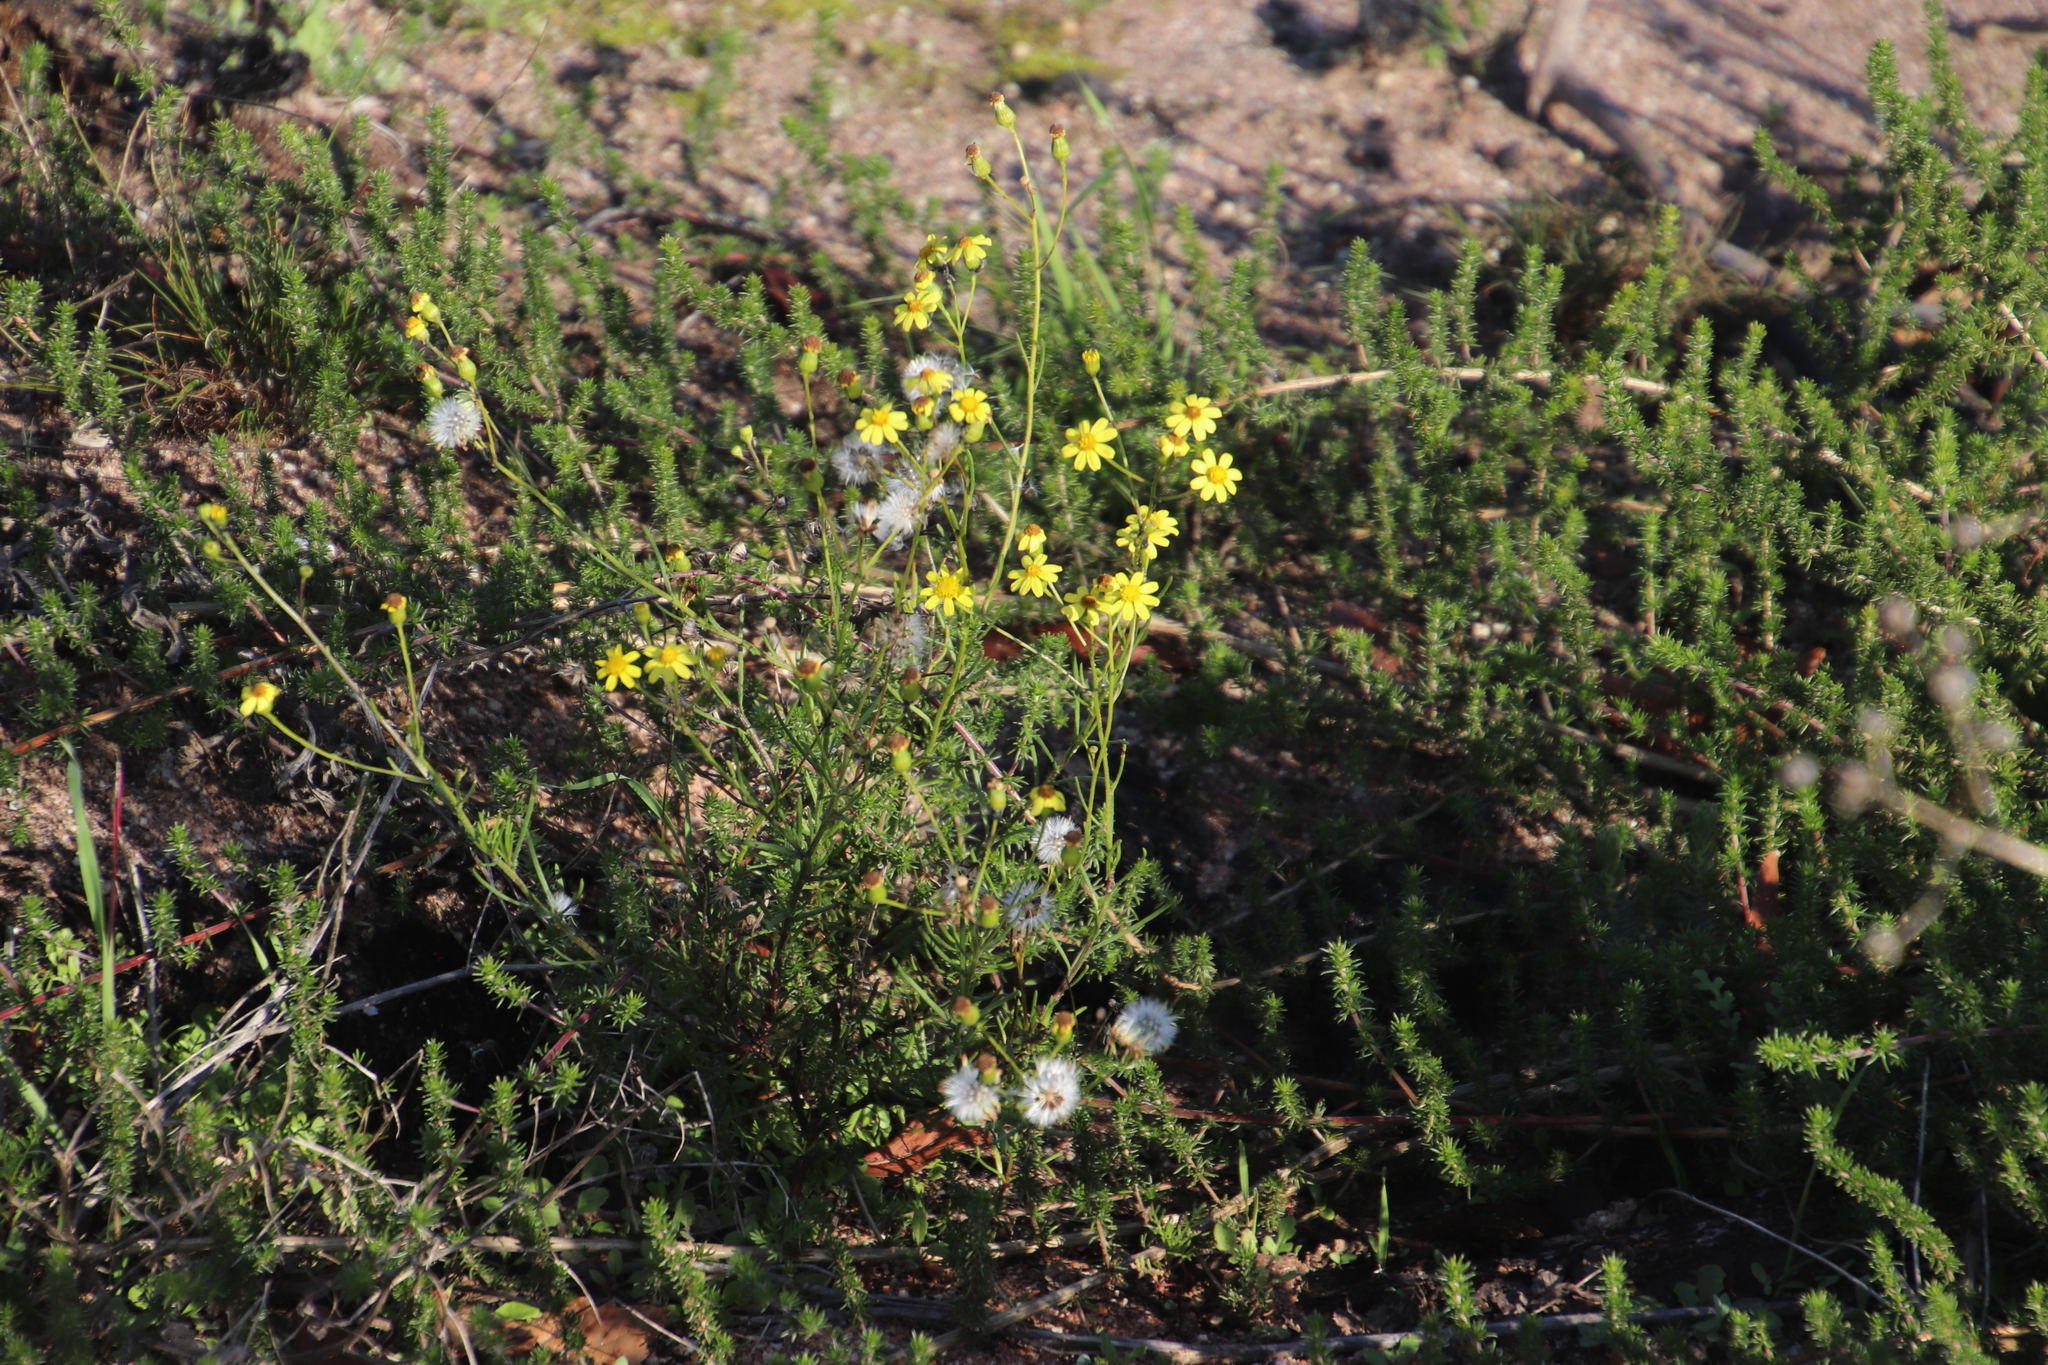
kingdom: Plantae
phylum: Tracheophyta
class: Magnoliopsida
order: Asterales
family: Asteraceae
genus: Senecio
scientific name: Senecio burchellii
